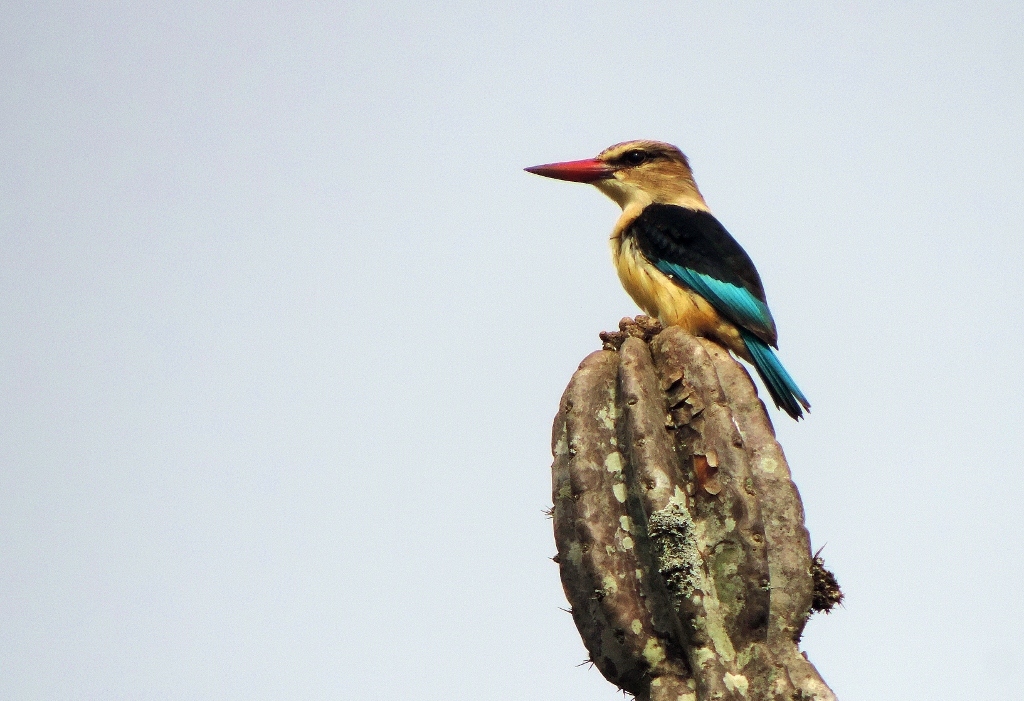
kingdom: Animalia
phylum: Chordata
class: Aves
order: Coraciiformes
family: Alcedinidae
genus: Halcyon
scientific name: Halcyon albiventris
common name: Brown-hooded kingfisher
